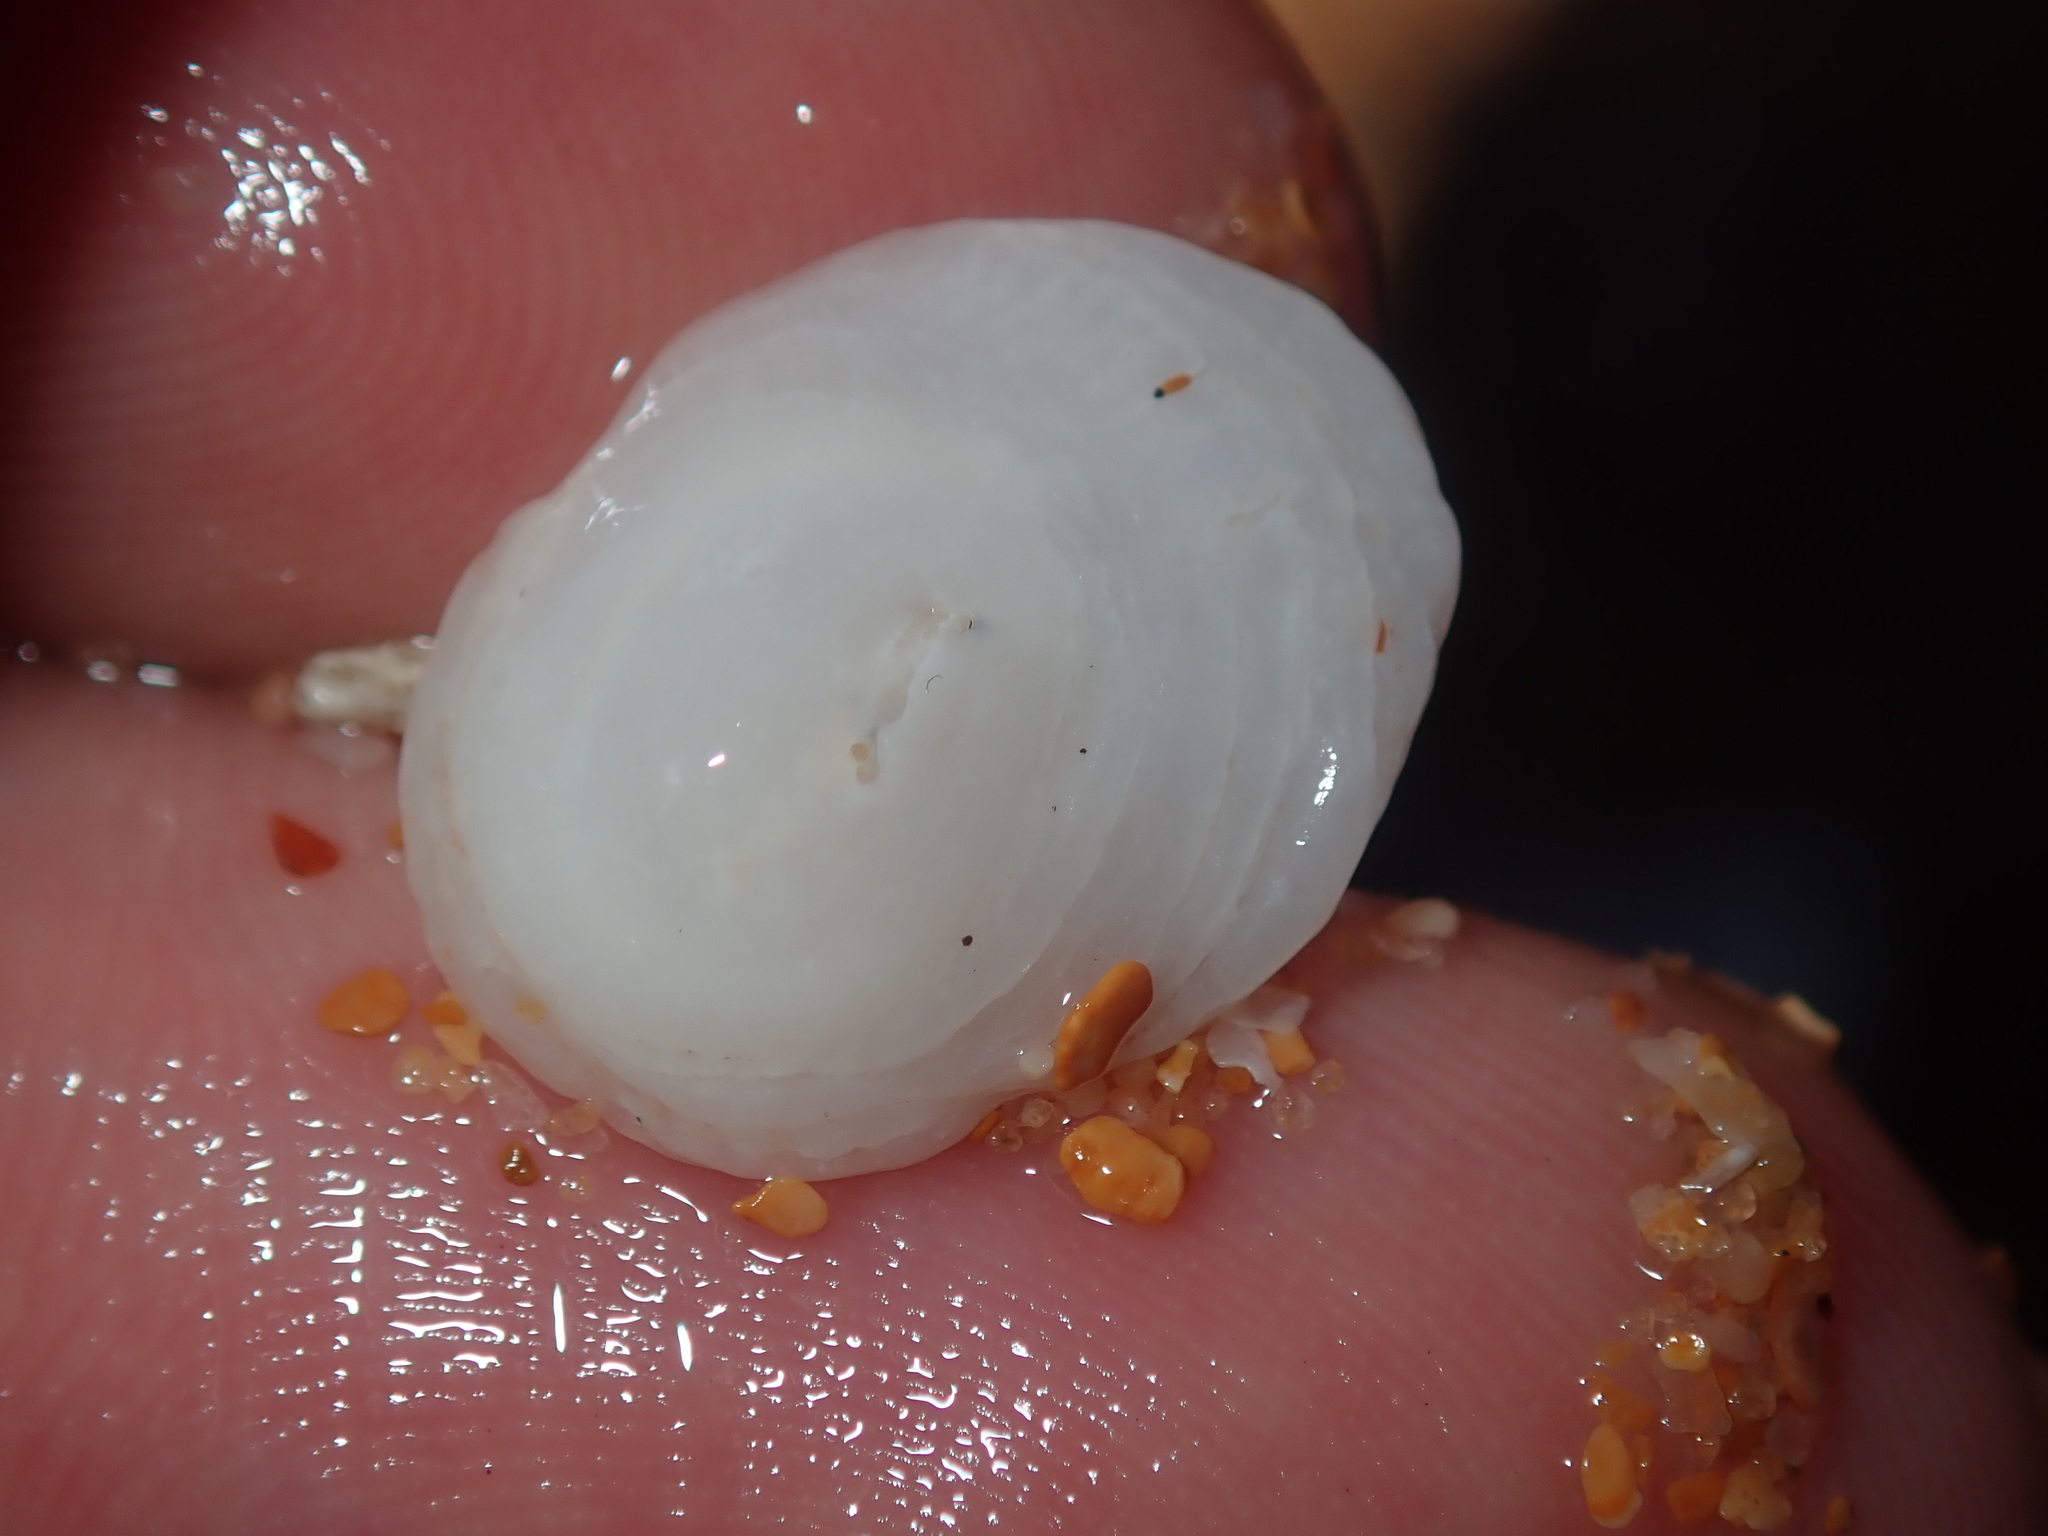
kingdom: Animalia
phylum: Mollusca
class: Gastropoda
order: Littorinimorpha
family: Hipponicidae
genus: Antisabia
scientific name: Antisabia foliacea
